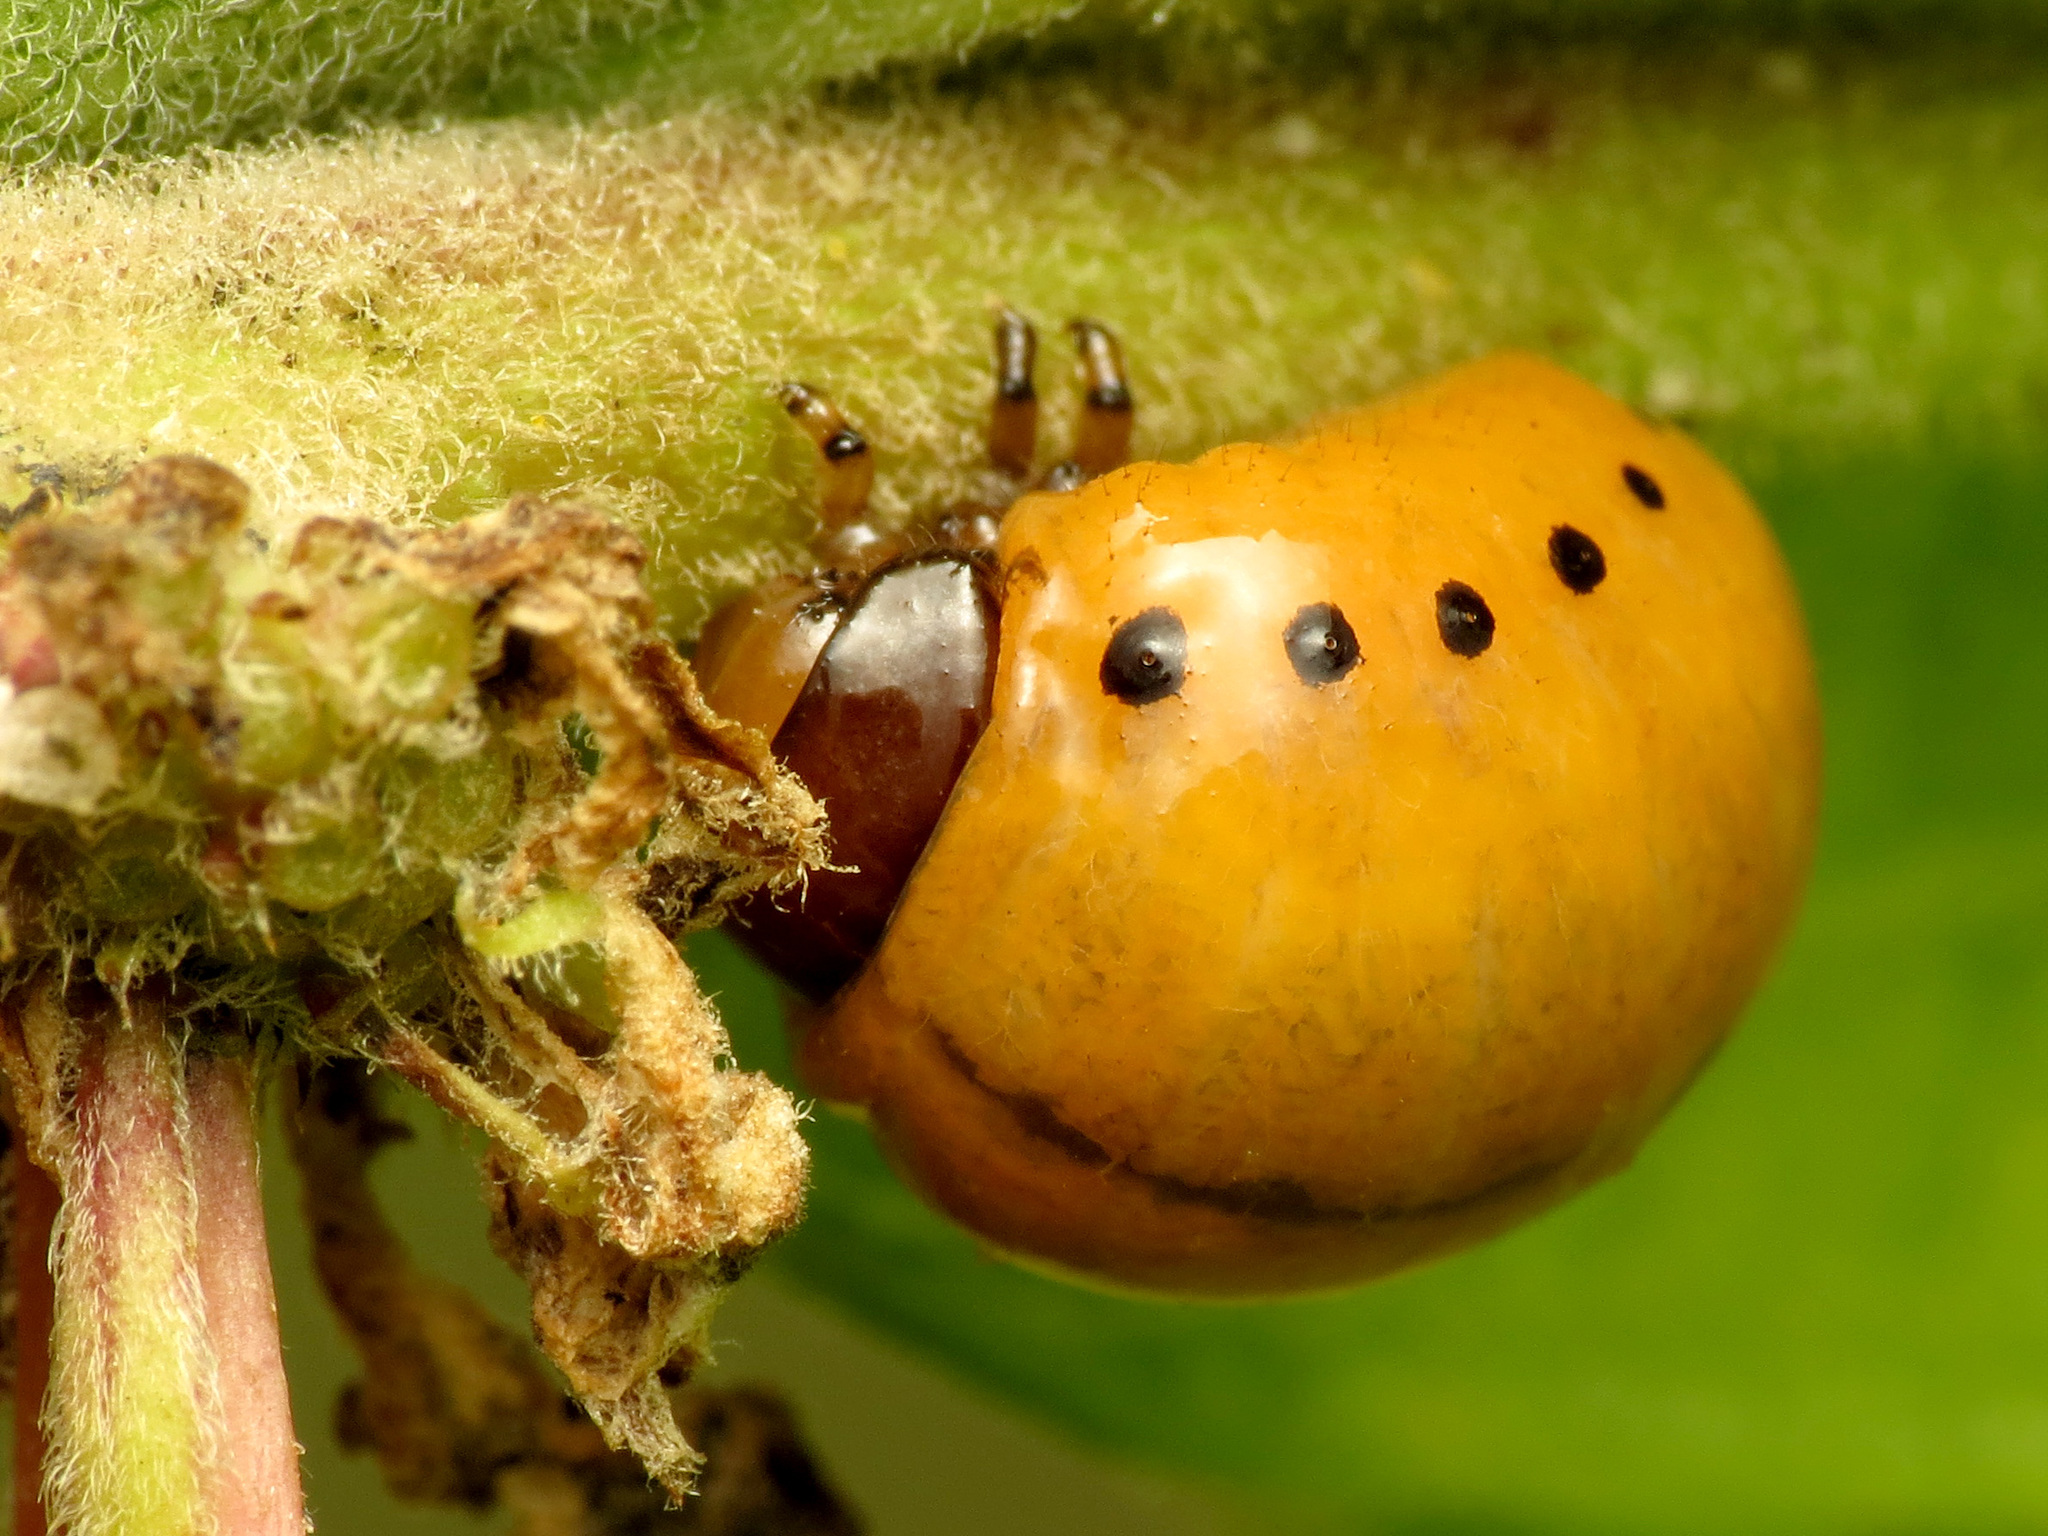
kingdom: Animalia
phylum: Arthropoda
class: Insecta
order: Coleoptera
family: Chrysomelidae
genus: Labidomera
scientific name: Labidomera clivicollis
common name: Swamp milkweed leaf beetle
